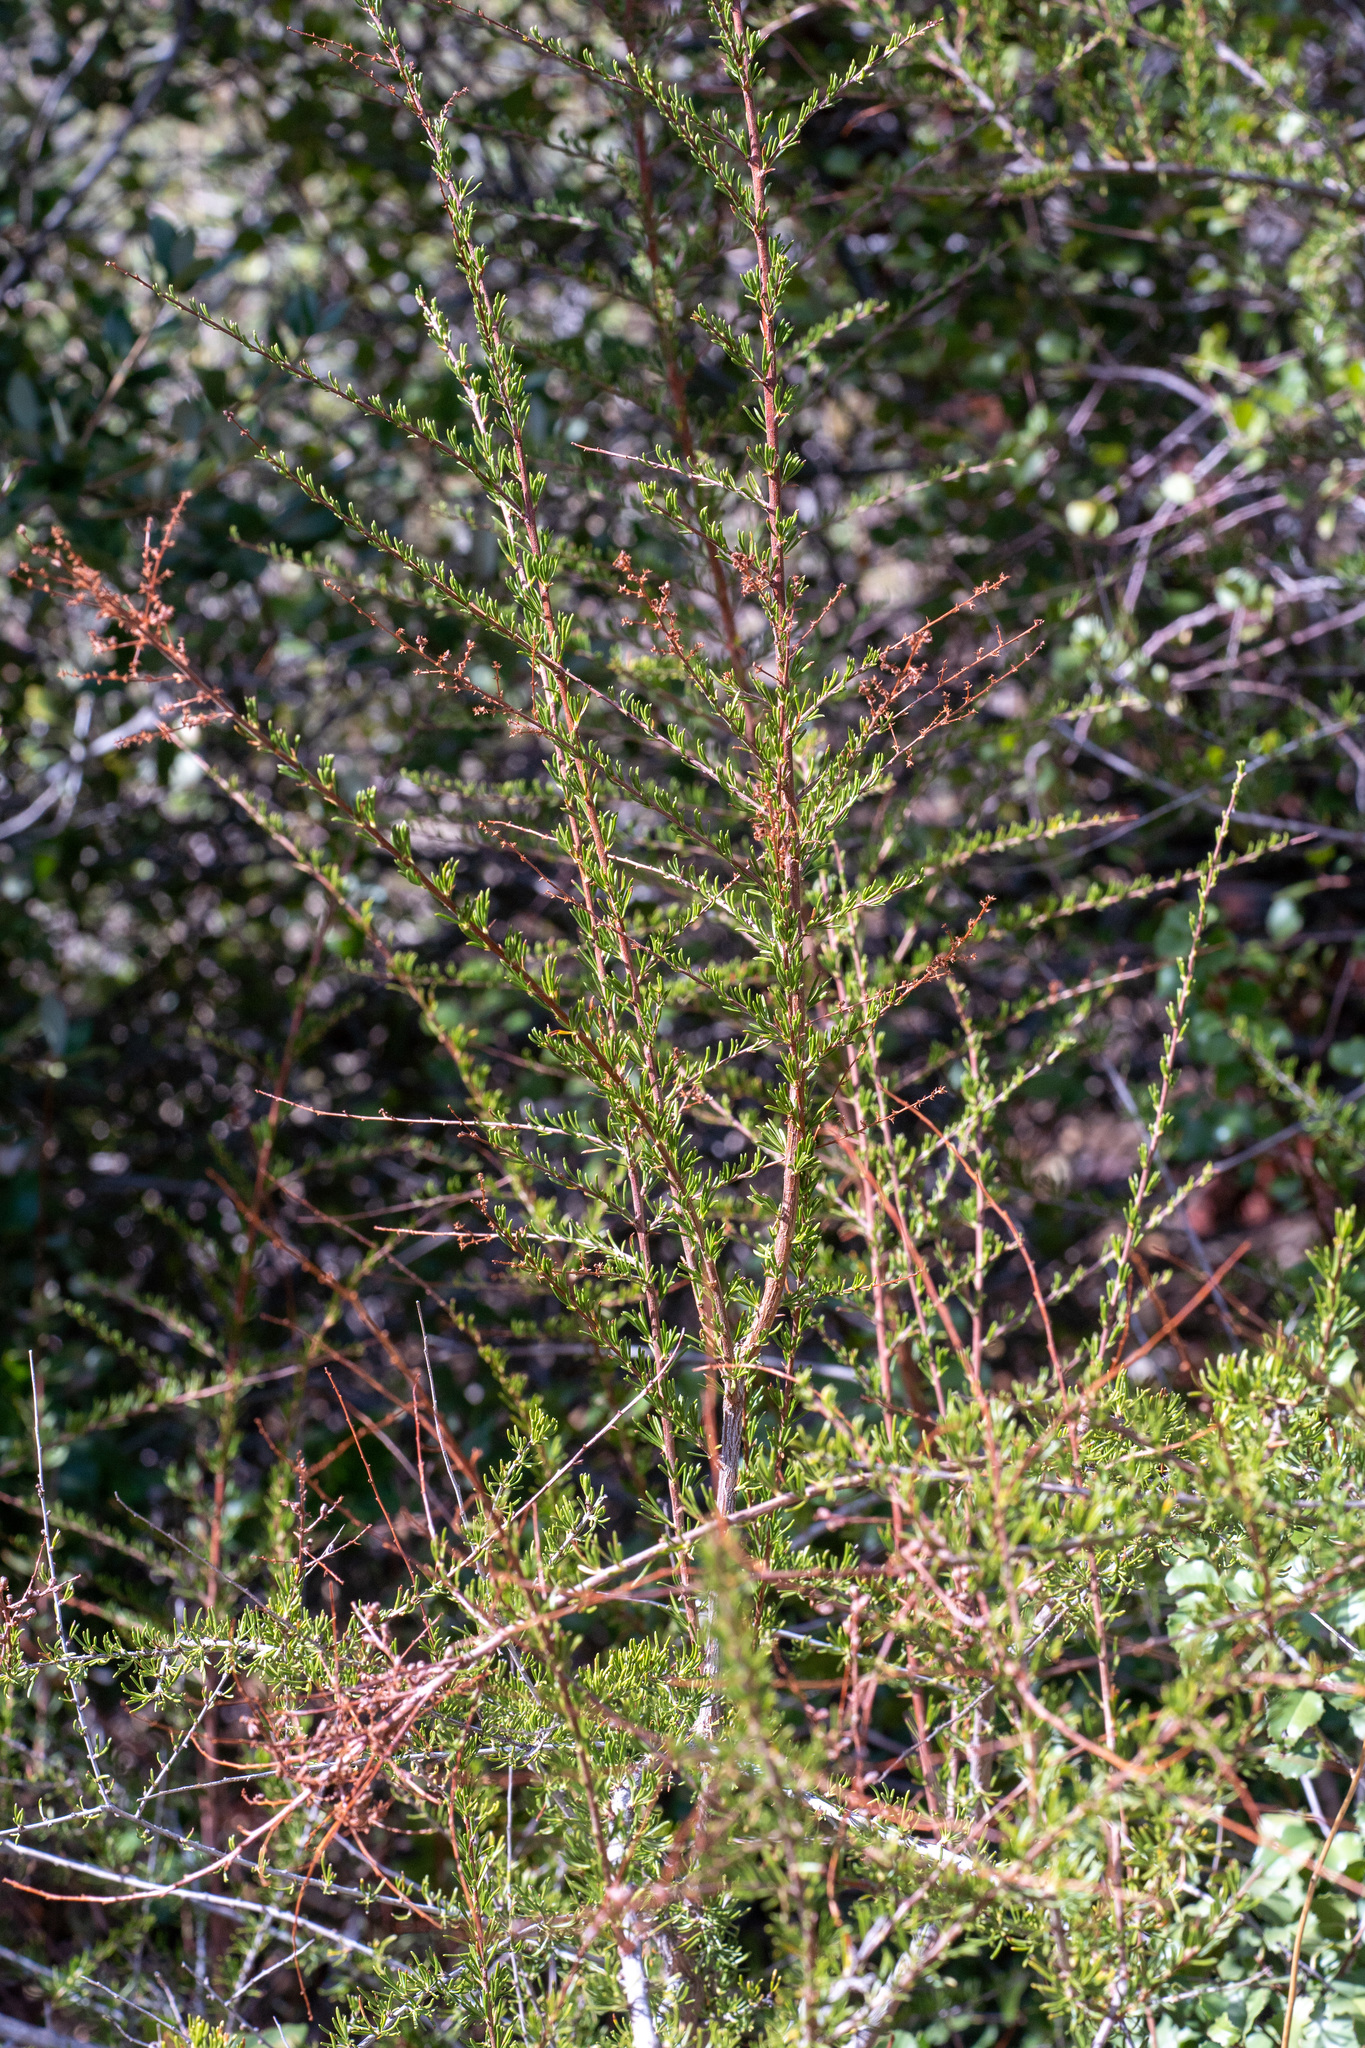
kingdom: Plantae
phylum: Tracheophyta
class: Magnoliopsida
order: Rosales
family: Rosaceae
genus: Adenostoma
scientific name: Adenostoma fasciculatum
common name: Chamise
